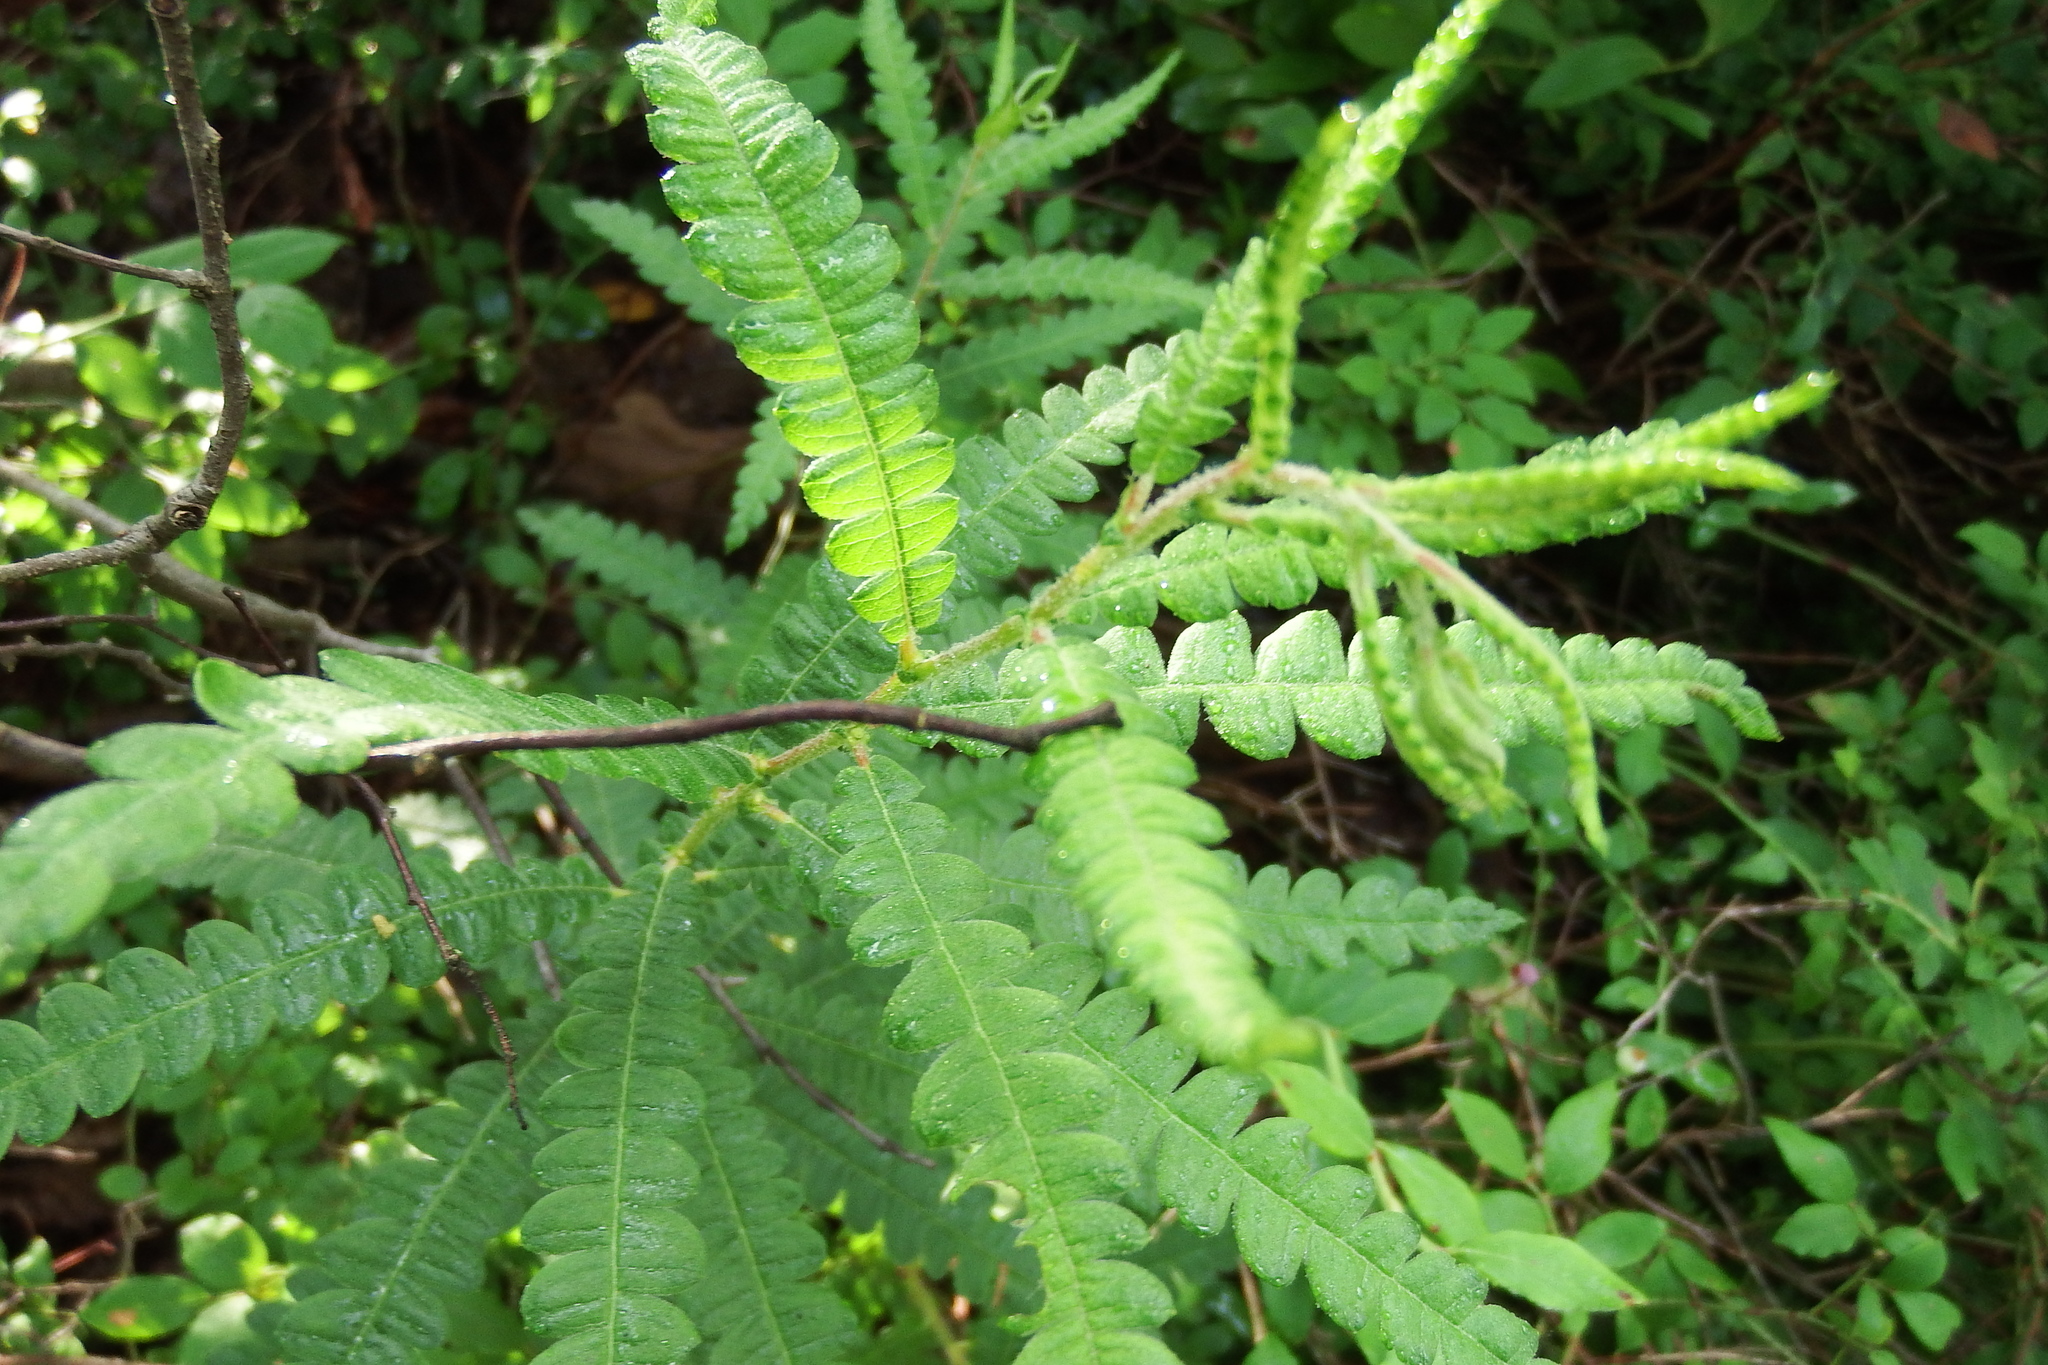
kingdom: Plantae
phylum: Tracheophyta
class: Magnoliopsida
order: Fagales
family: Myricaceae
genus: Comptonia
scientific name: Comptonia peregrina
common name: Sweet-fern
